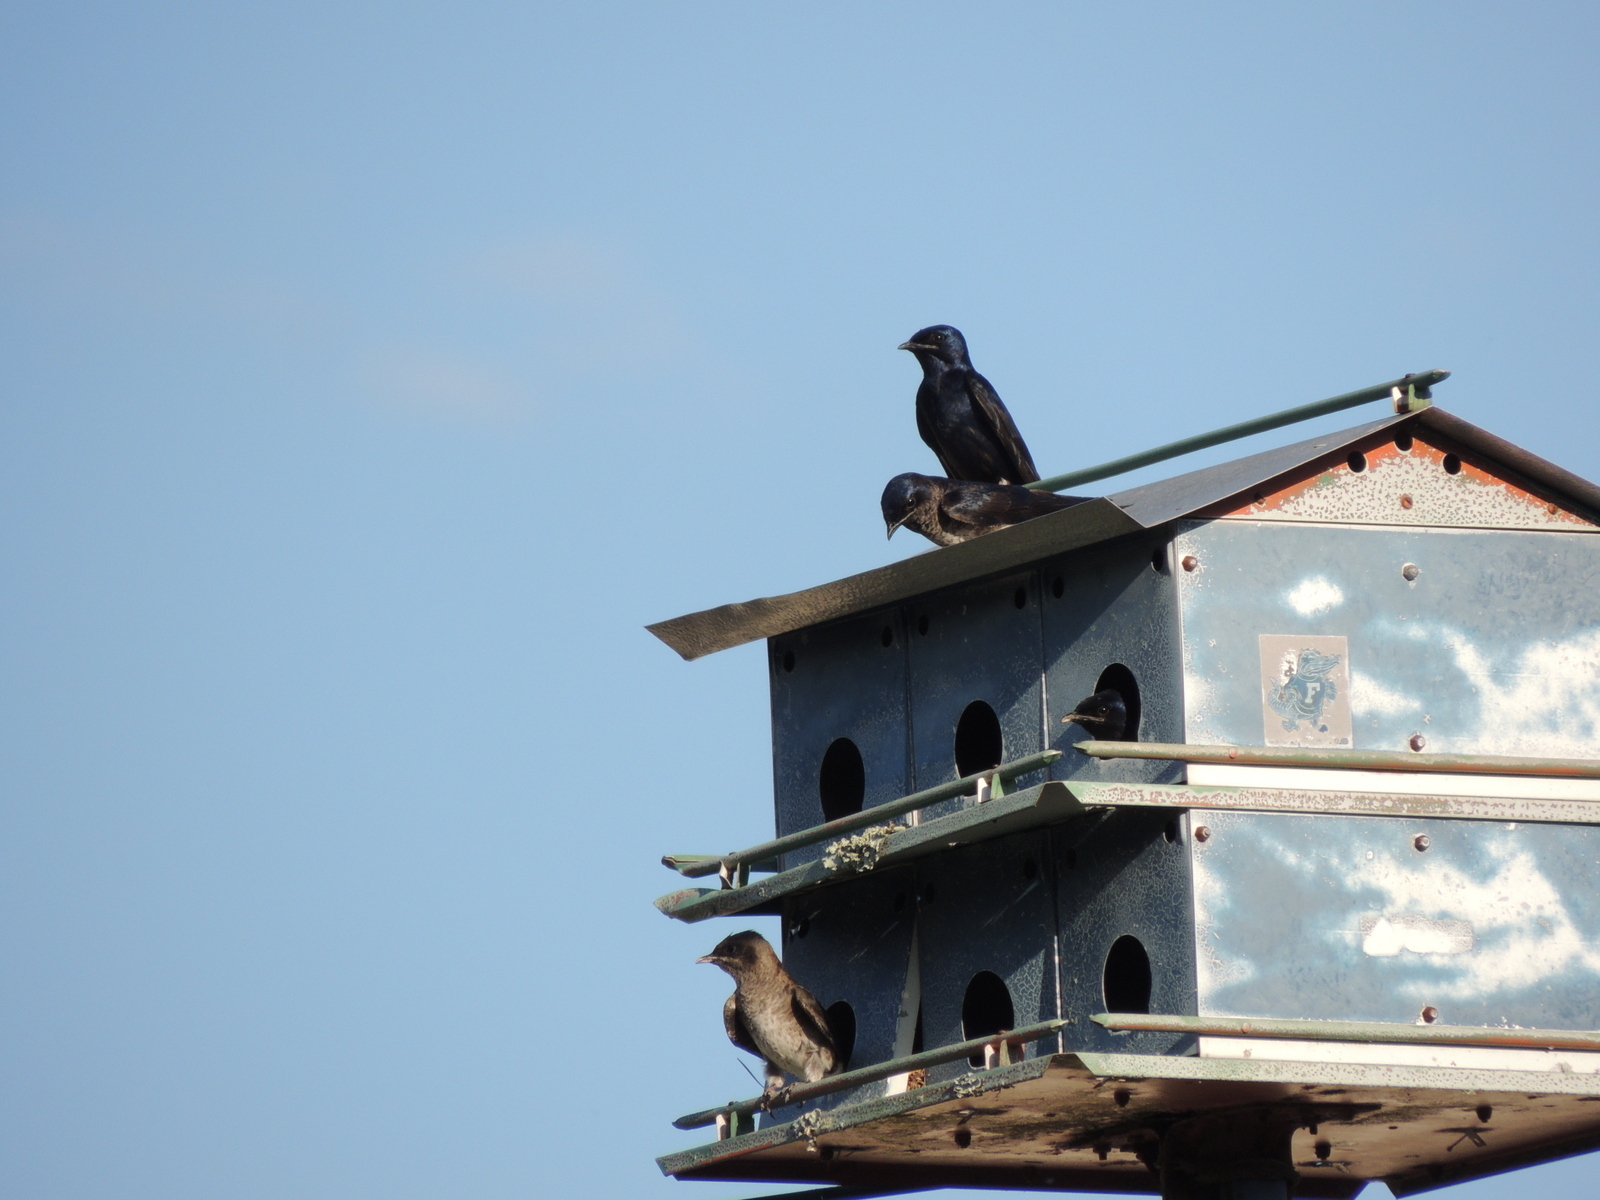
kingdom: Animalia
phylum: Chordata
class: Aves
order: Passeriformes
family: Hirundinidae
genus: Progne
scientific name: Progne subis
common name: Purple martin
